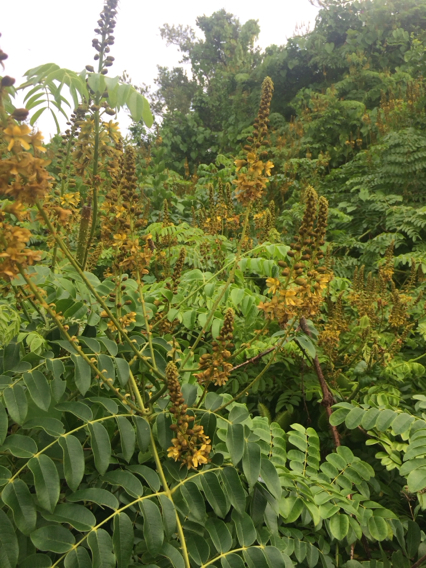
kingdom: Plantae
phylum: Tracheophyta
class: Magnoliopsida
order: Fabales
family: Fabaceae
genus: Guilandina
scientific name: Guilandina bonduc
